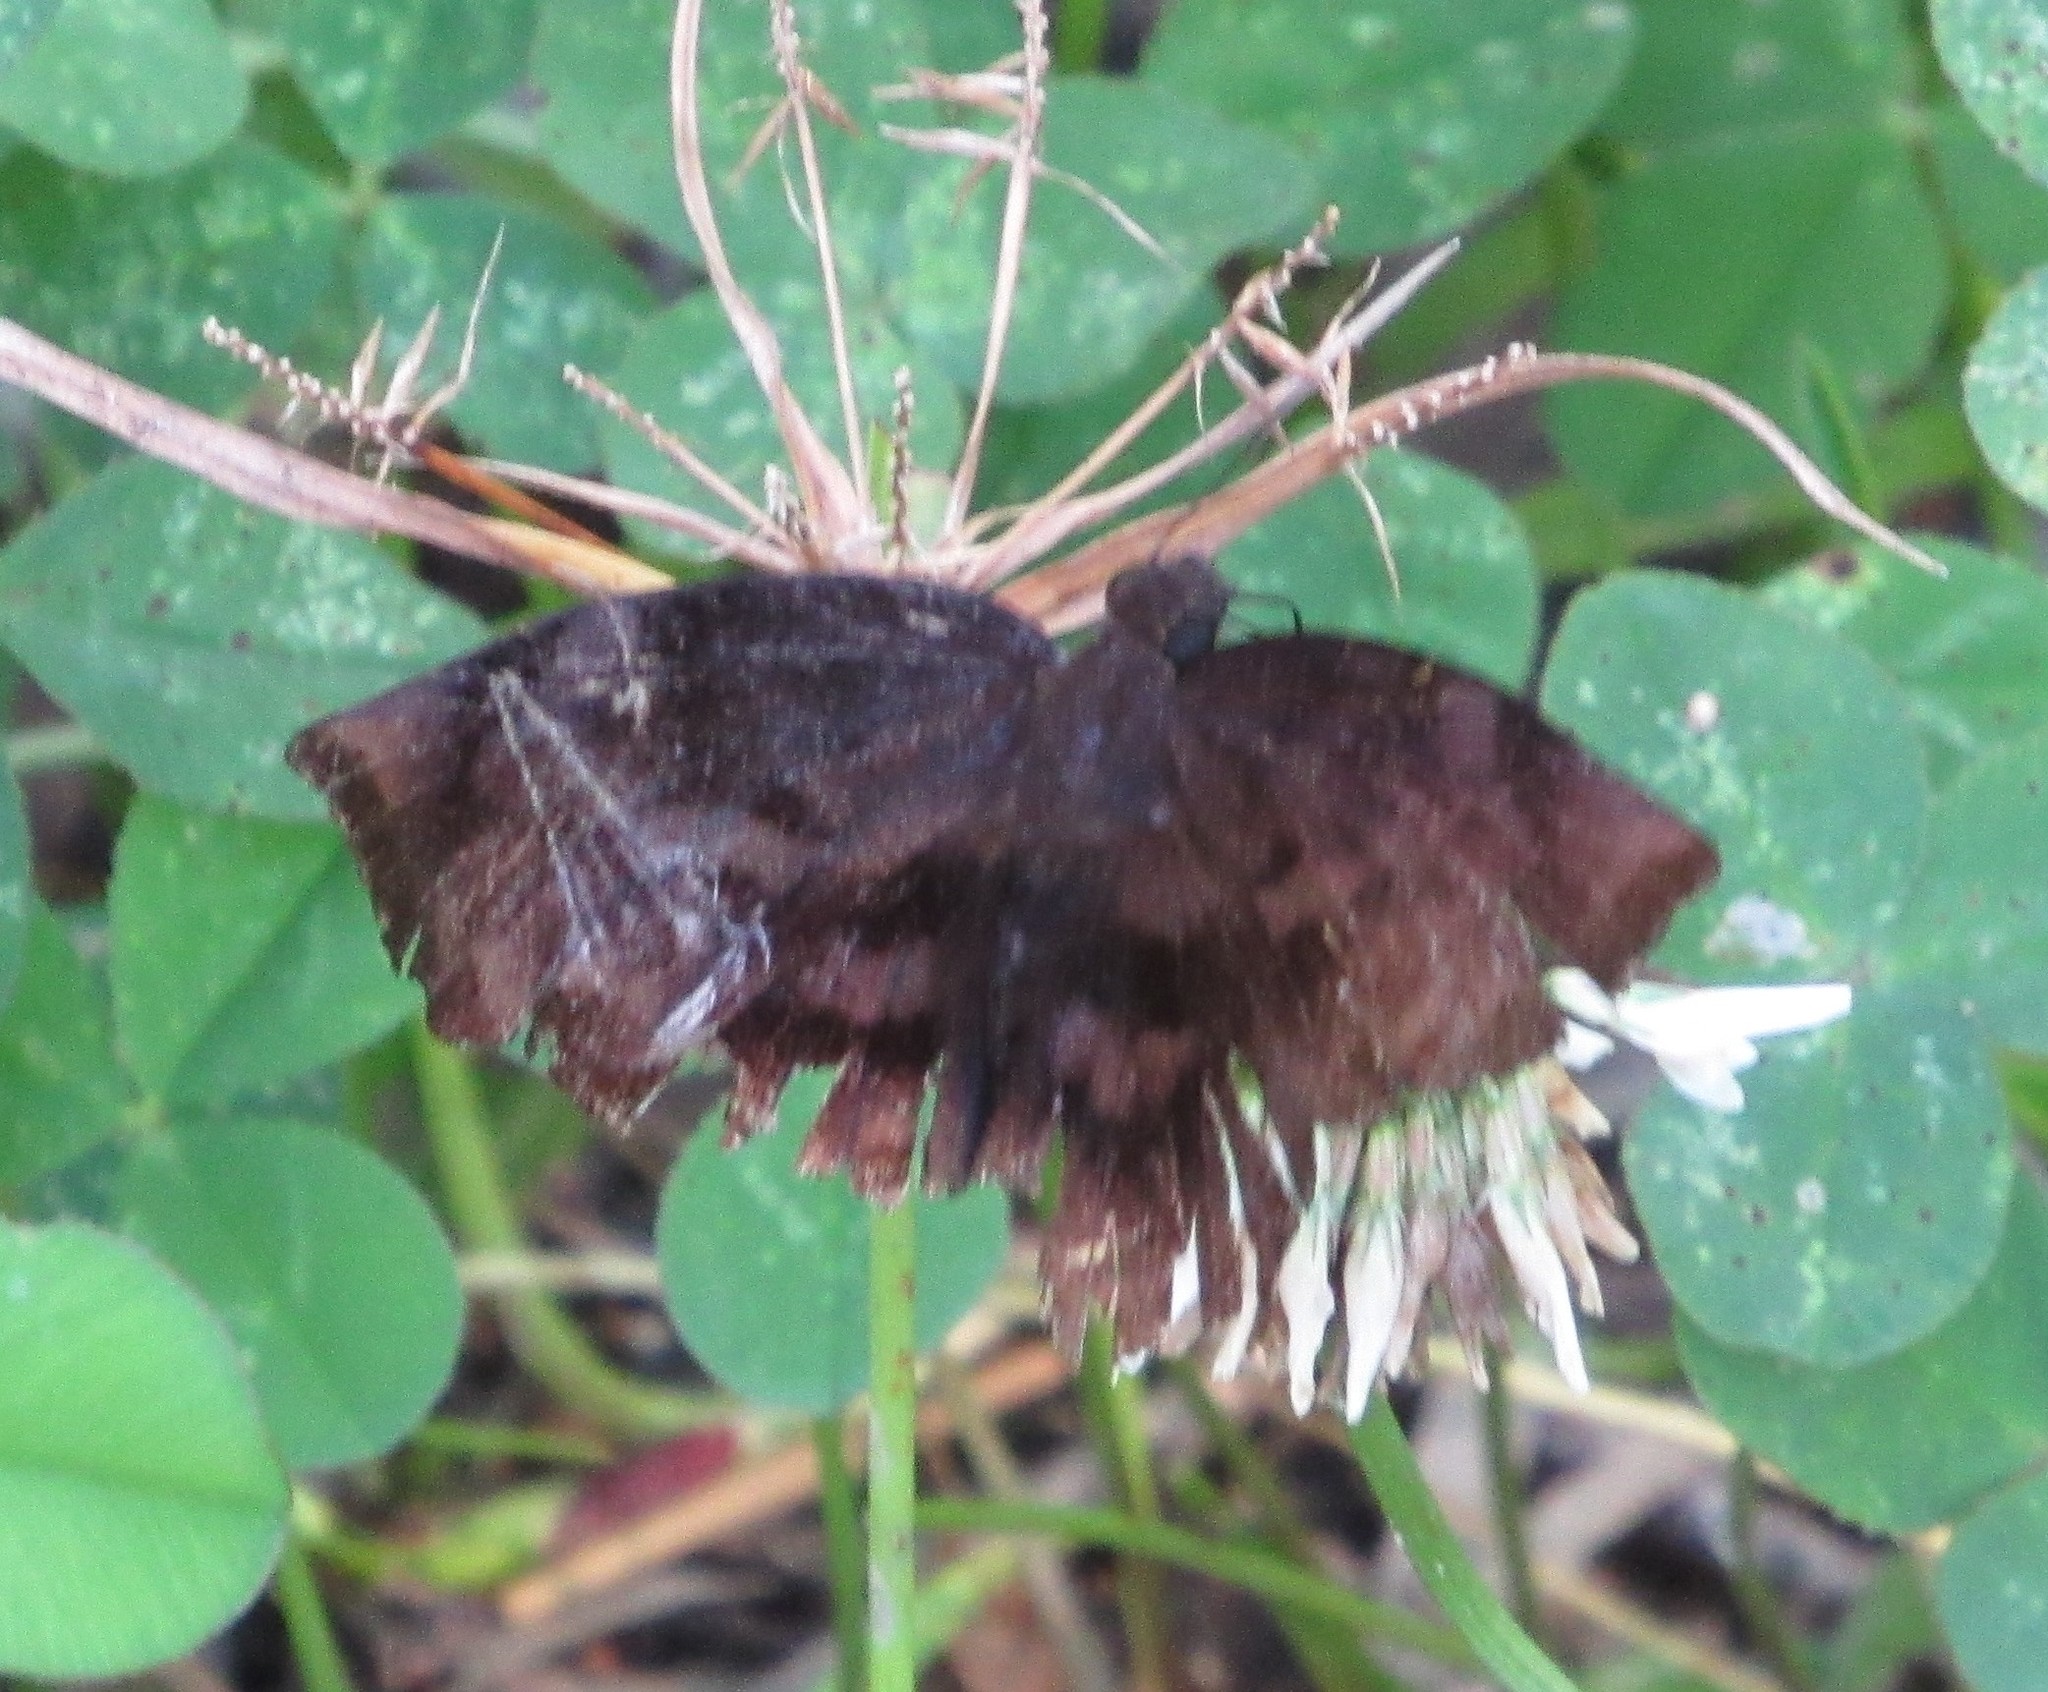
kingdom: Animalia
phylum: Arthropoda
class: Insecta
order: Lepidoptera
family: Hesperiidae
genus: Achlyodes
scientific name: Achlyodes busirus
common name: Giant sicklewing
